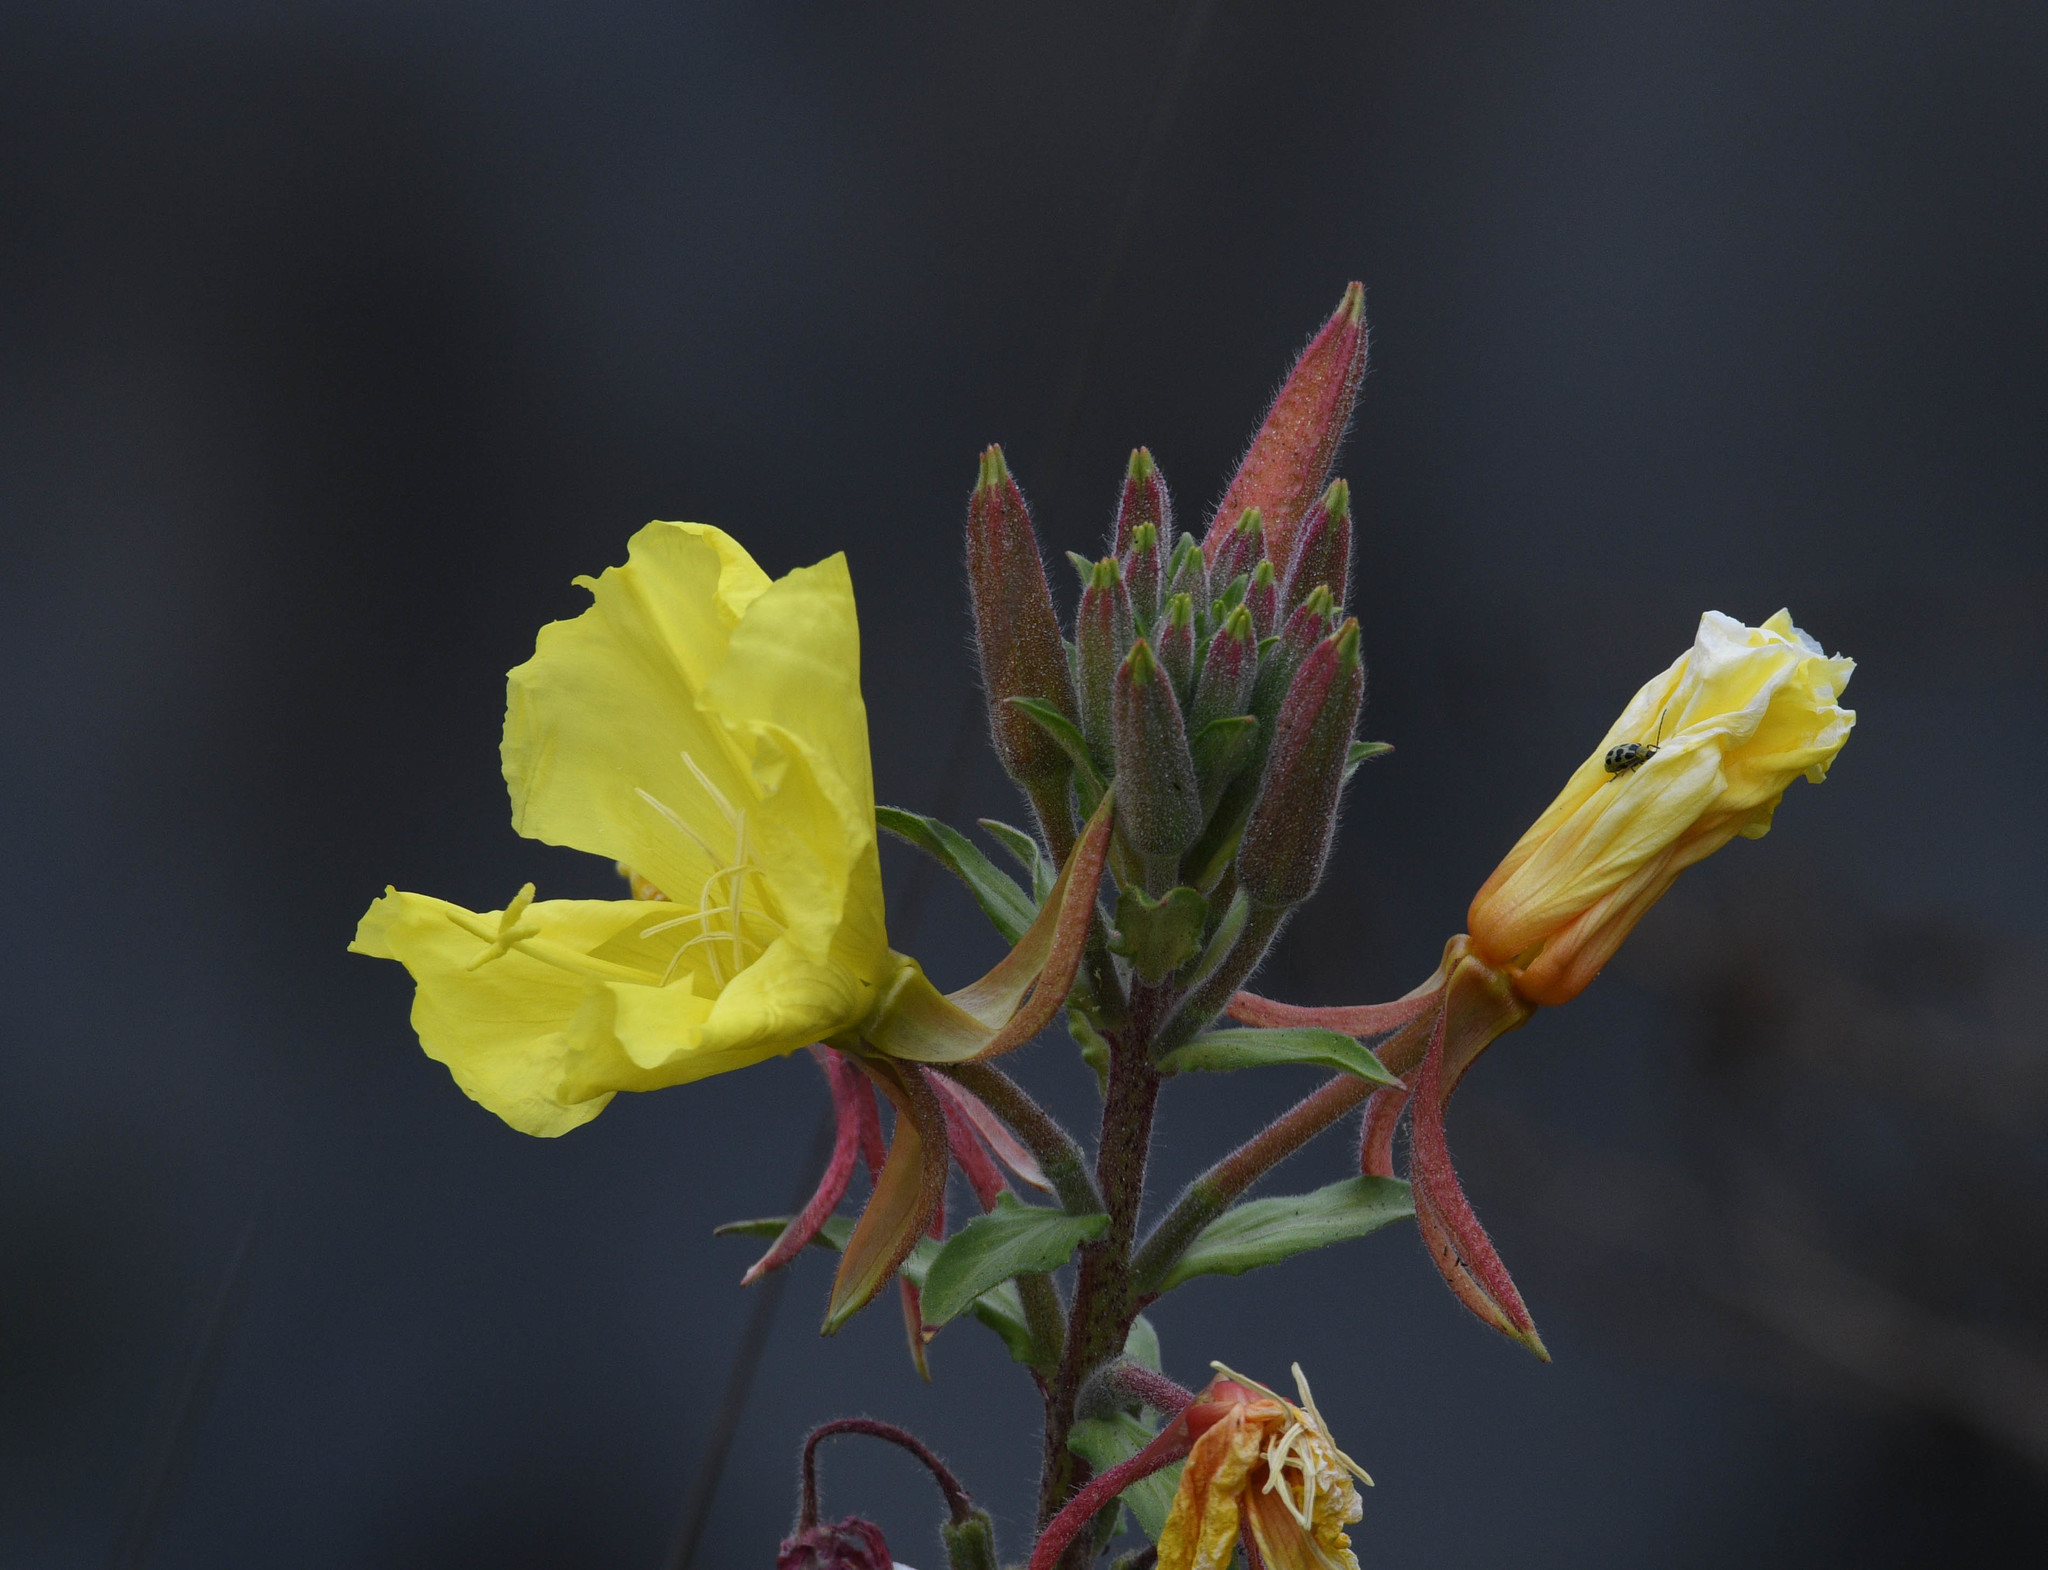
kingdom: Plantae
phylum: Tracheophyta
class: Magnoliopsida
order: Myrtales
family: Onagraceae
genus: Oenothera
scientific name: Oenothera elata
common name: Hooker's evening-primrose
